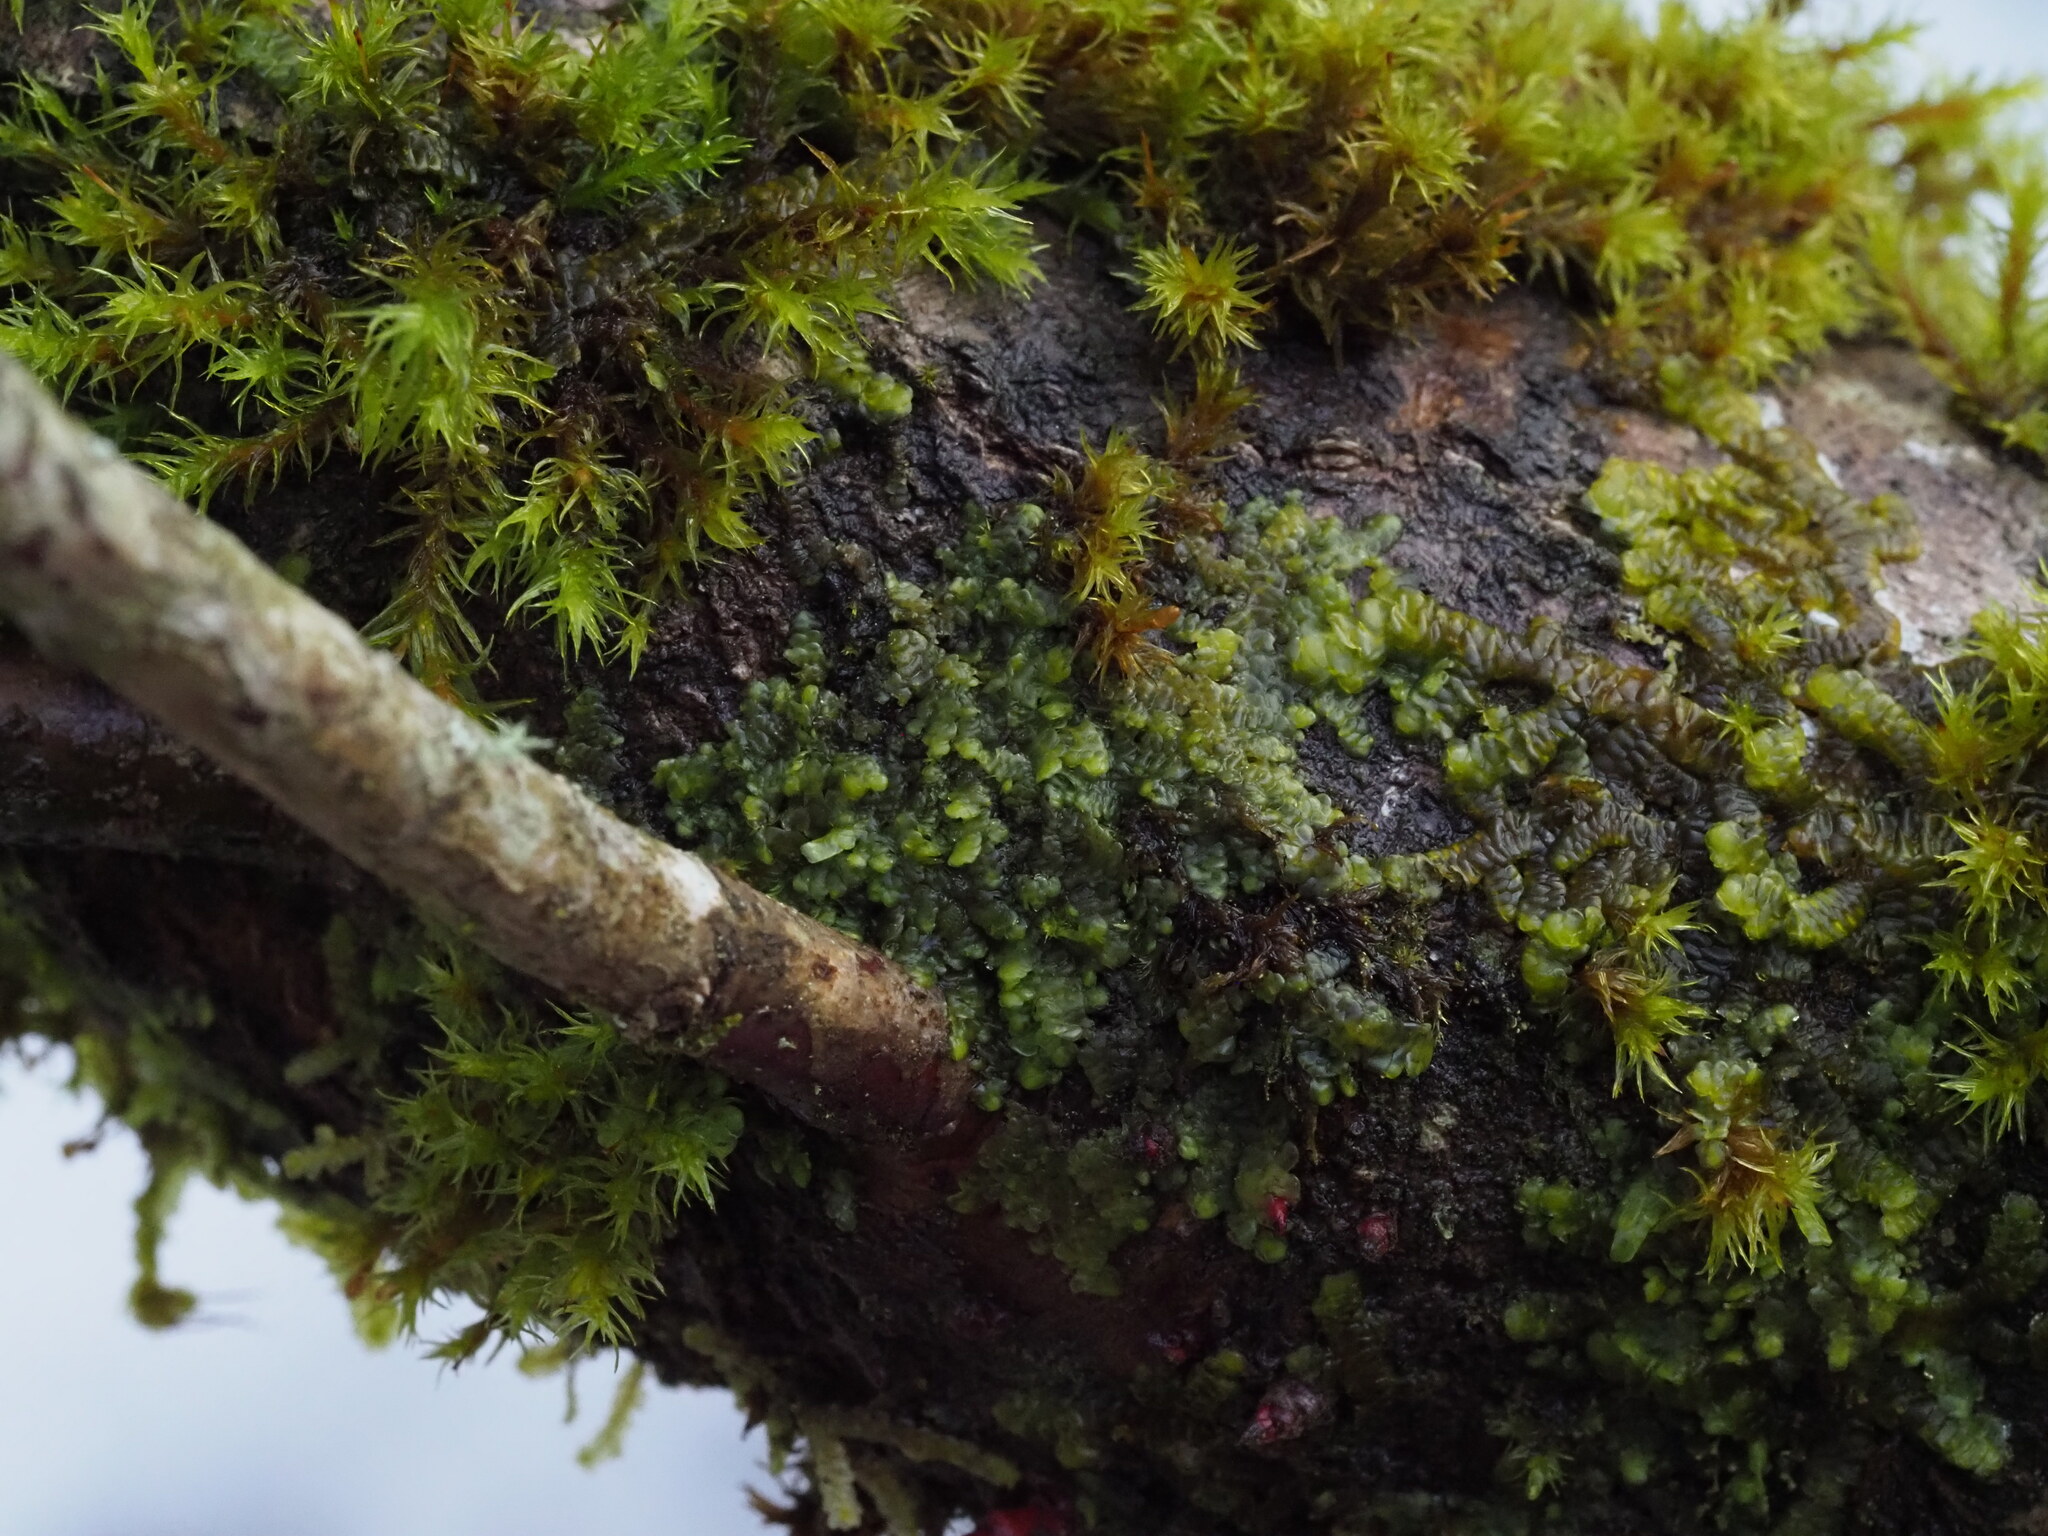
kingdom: Plantae
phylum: Marchantiophyta
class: Jungermanniopsida
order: Porellales
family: Radulaceae
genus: Radula
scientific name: Radula complanata
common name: Flat-leaved scalewort
